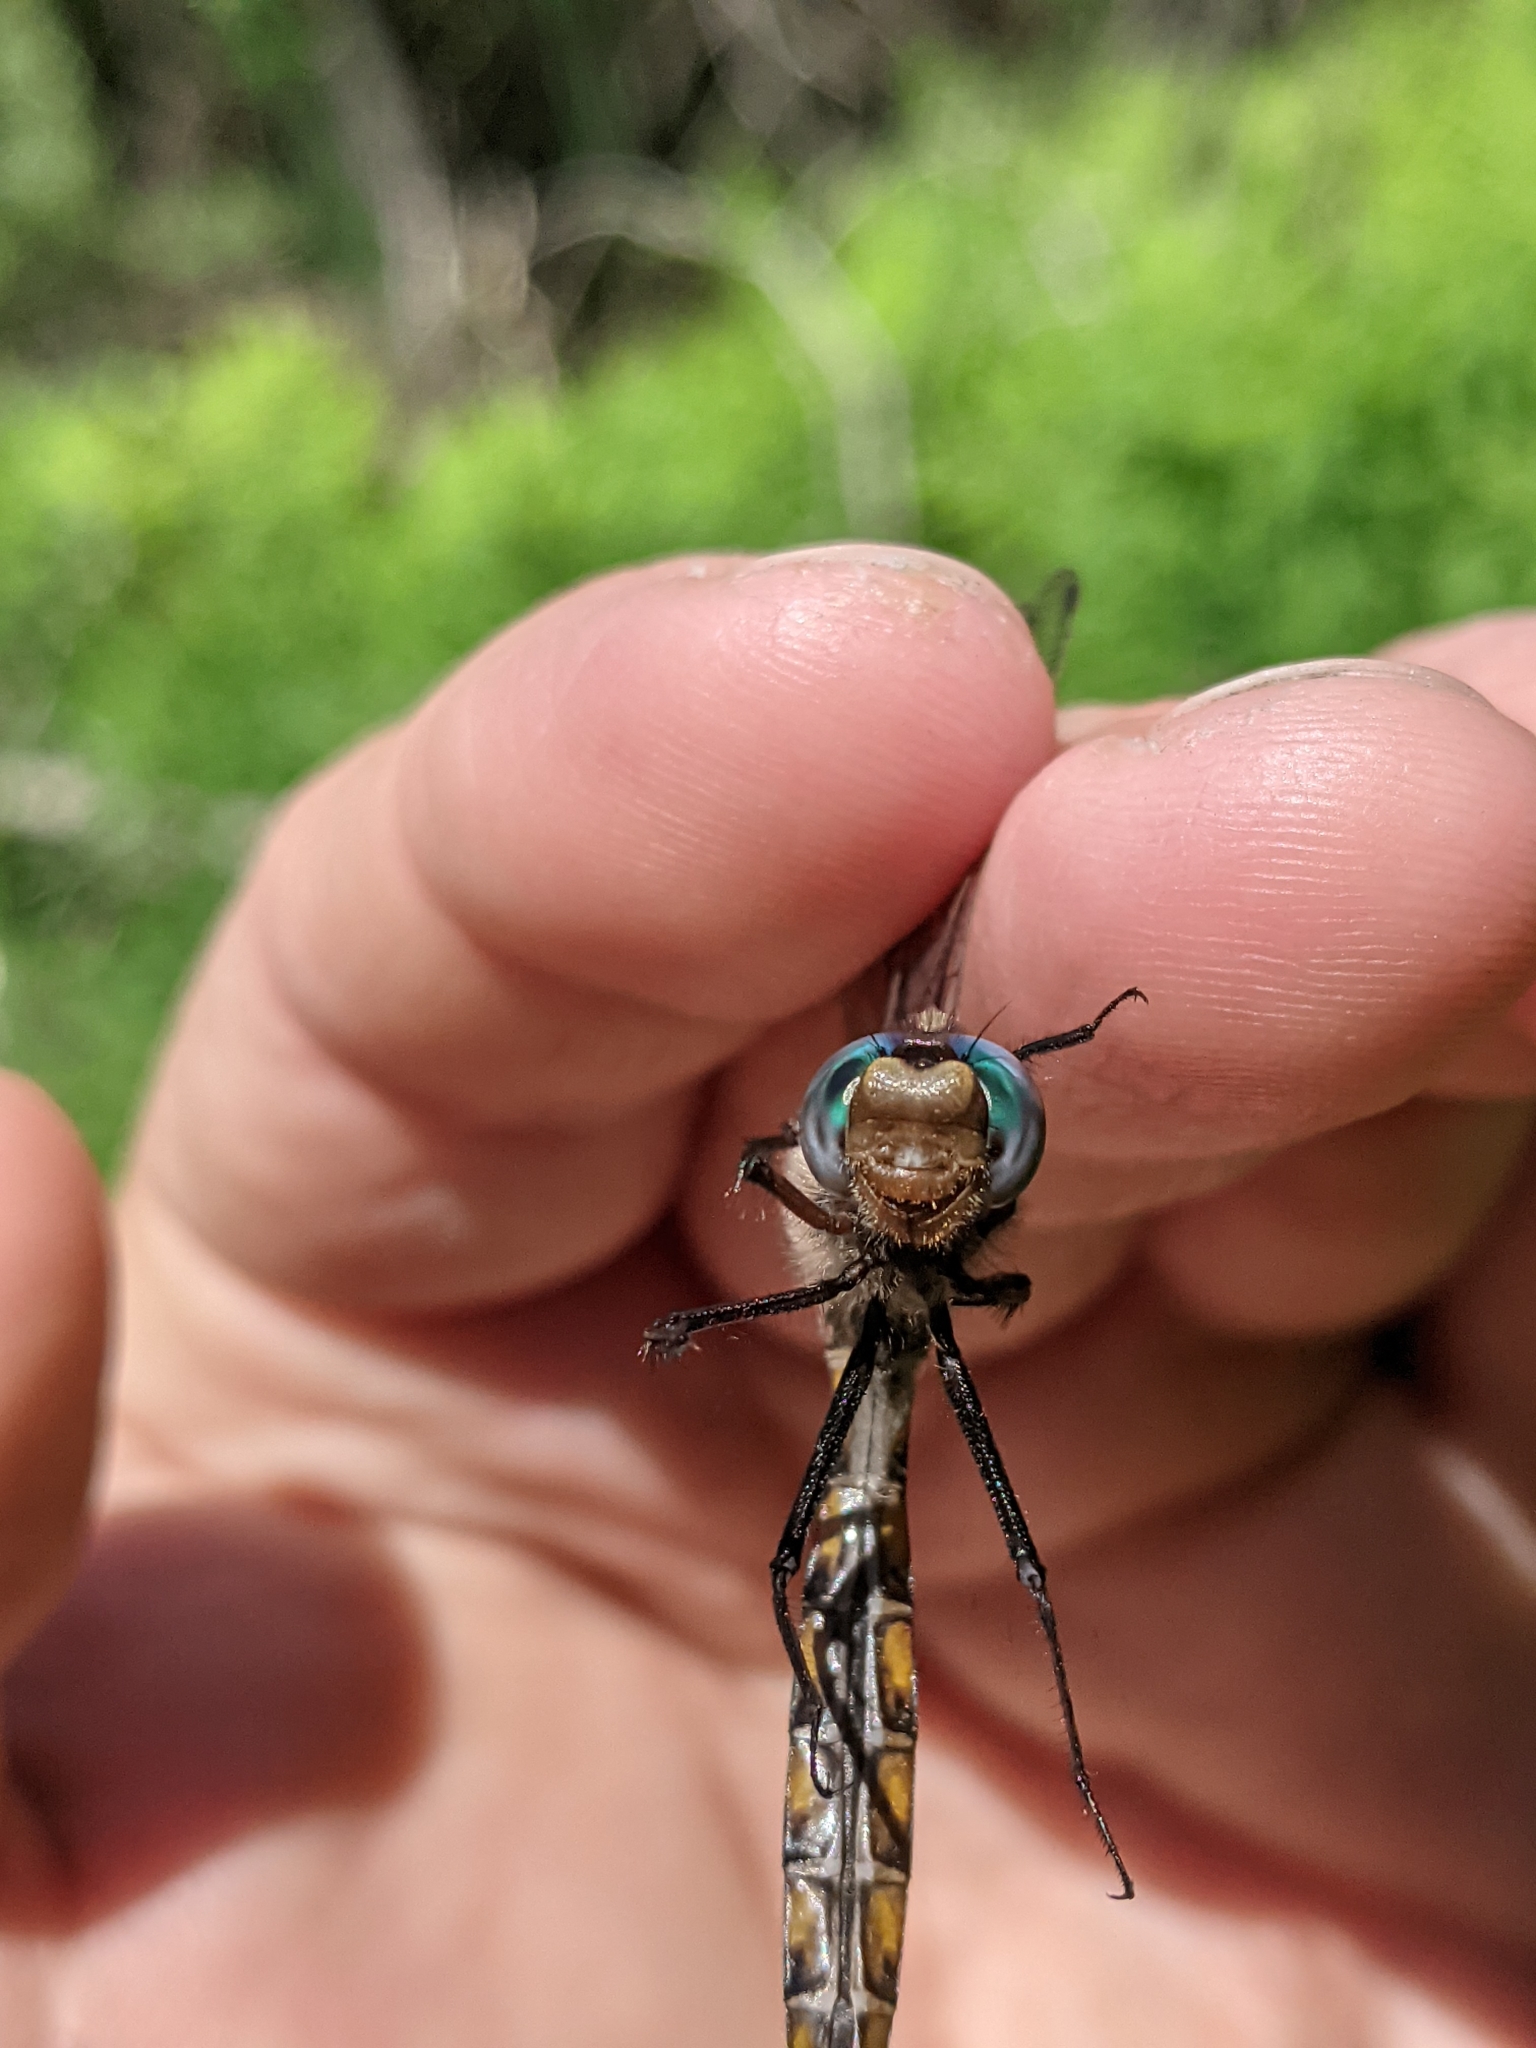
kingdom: Animalia
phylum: Arthropoda
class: Insecta
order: Odonata
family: Corduliidae
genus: Epitheca
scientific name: Epitheca canis
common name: Beaverpond baskettail
